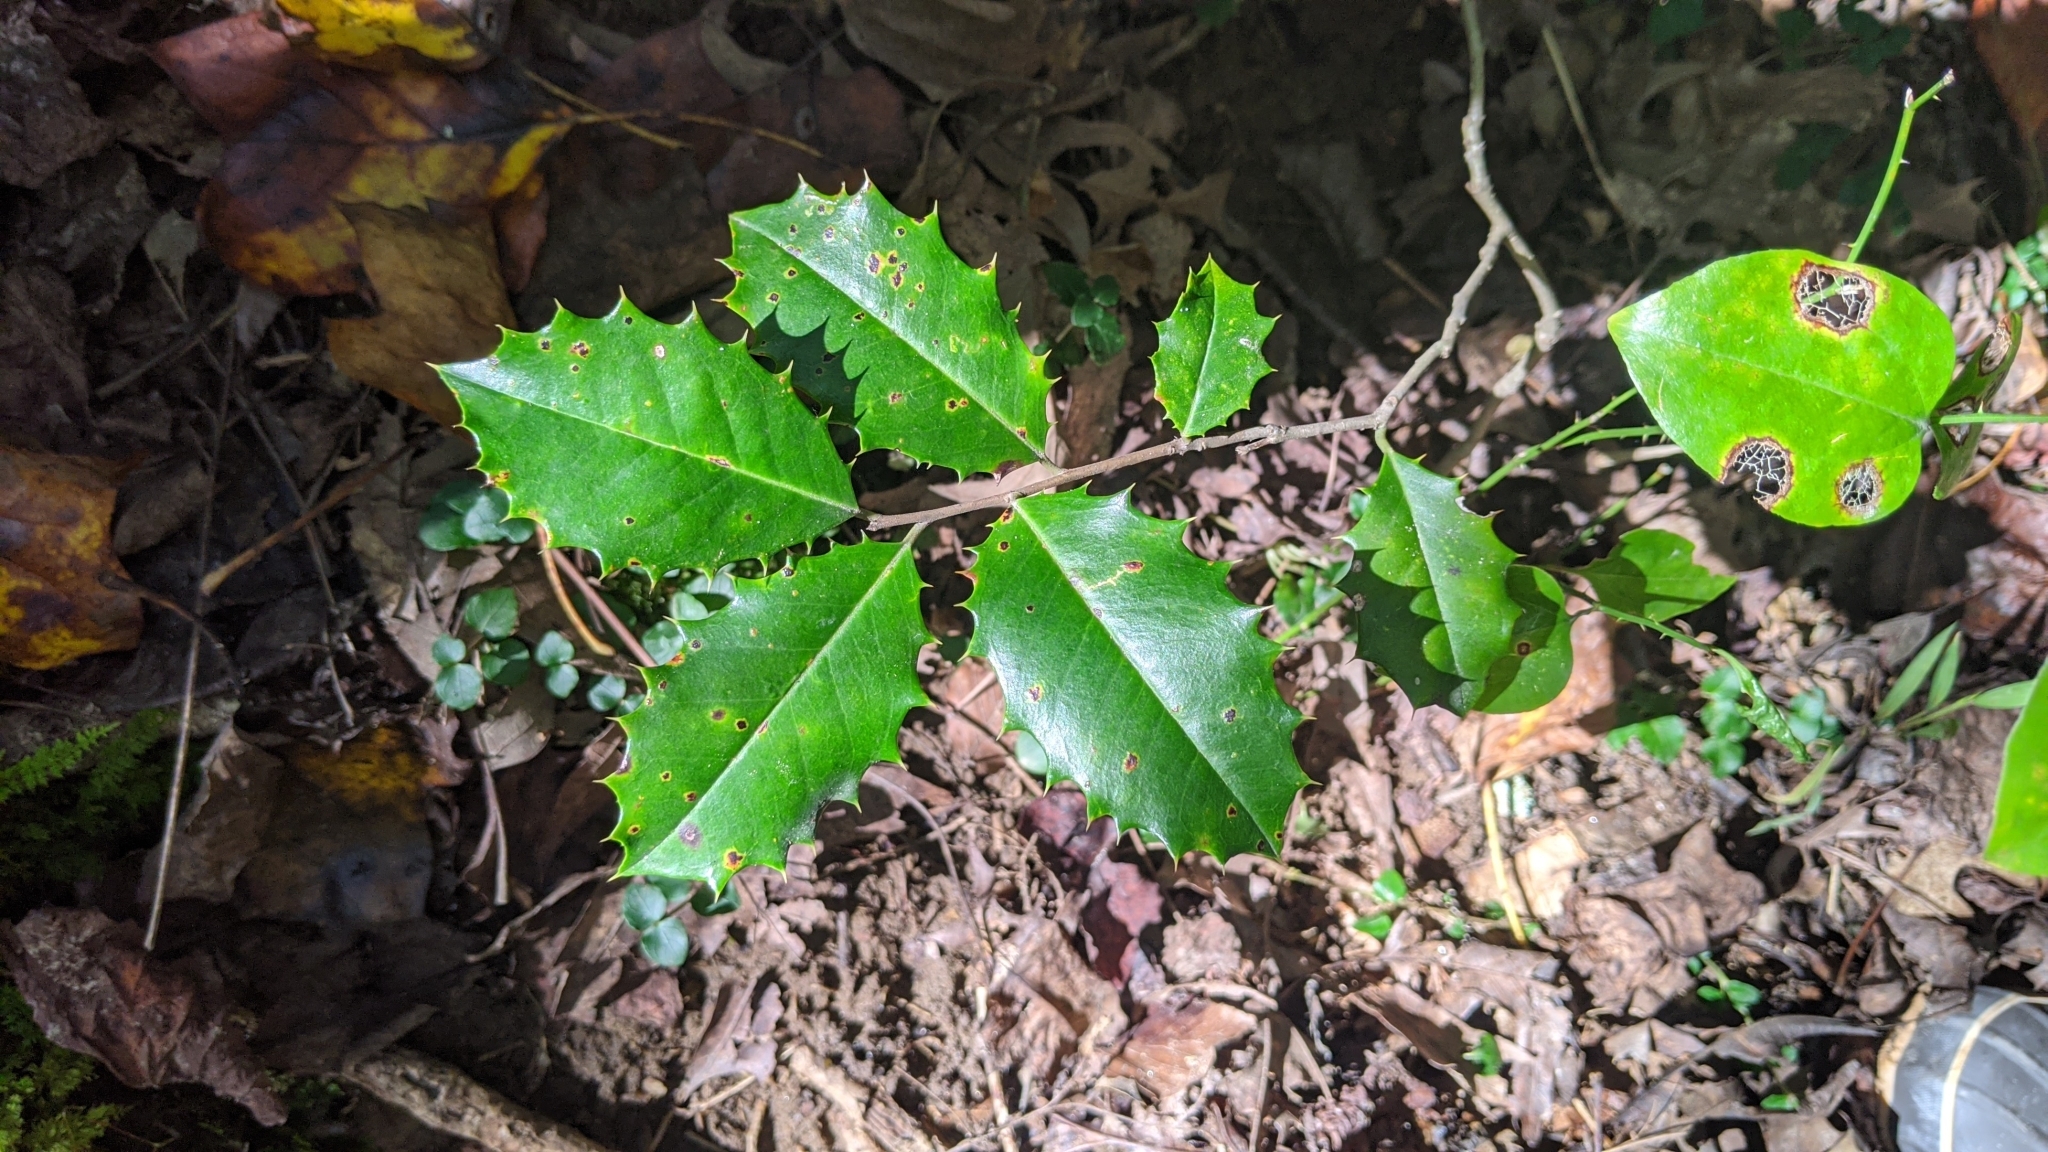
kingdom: Plantae
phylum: Tracheophyta
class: Magnoliopsida
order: Aquifoliales
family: Aquifoliaceae
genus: Ilex
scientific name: Ilex opaca
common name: American holly
